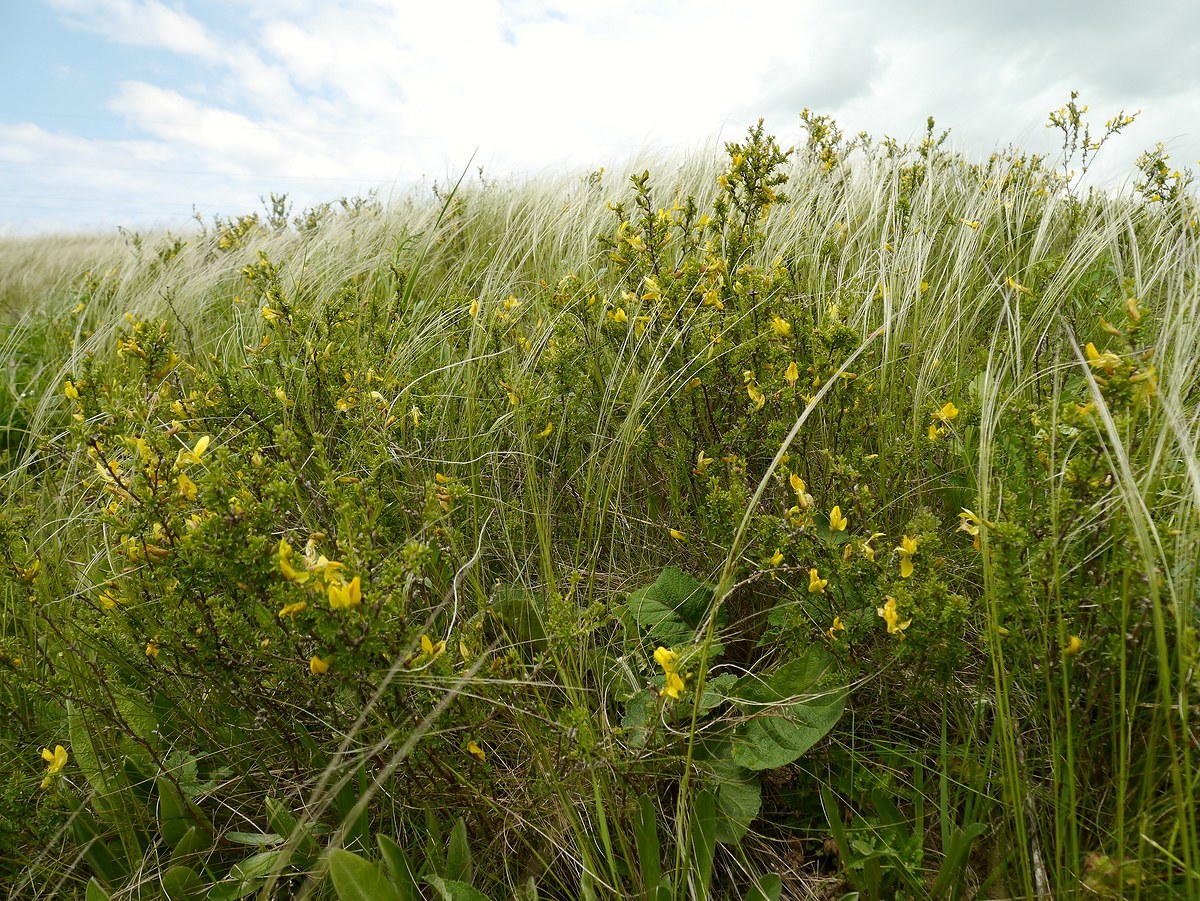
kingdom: Plantae
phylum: Tracheophyta
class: Magnoliopsida
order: Fabales
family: Fabaceae
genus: Caragana
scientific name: Caragana scythica
